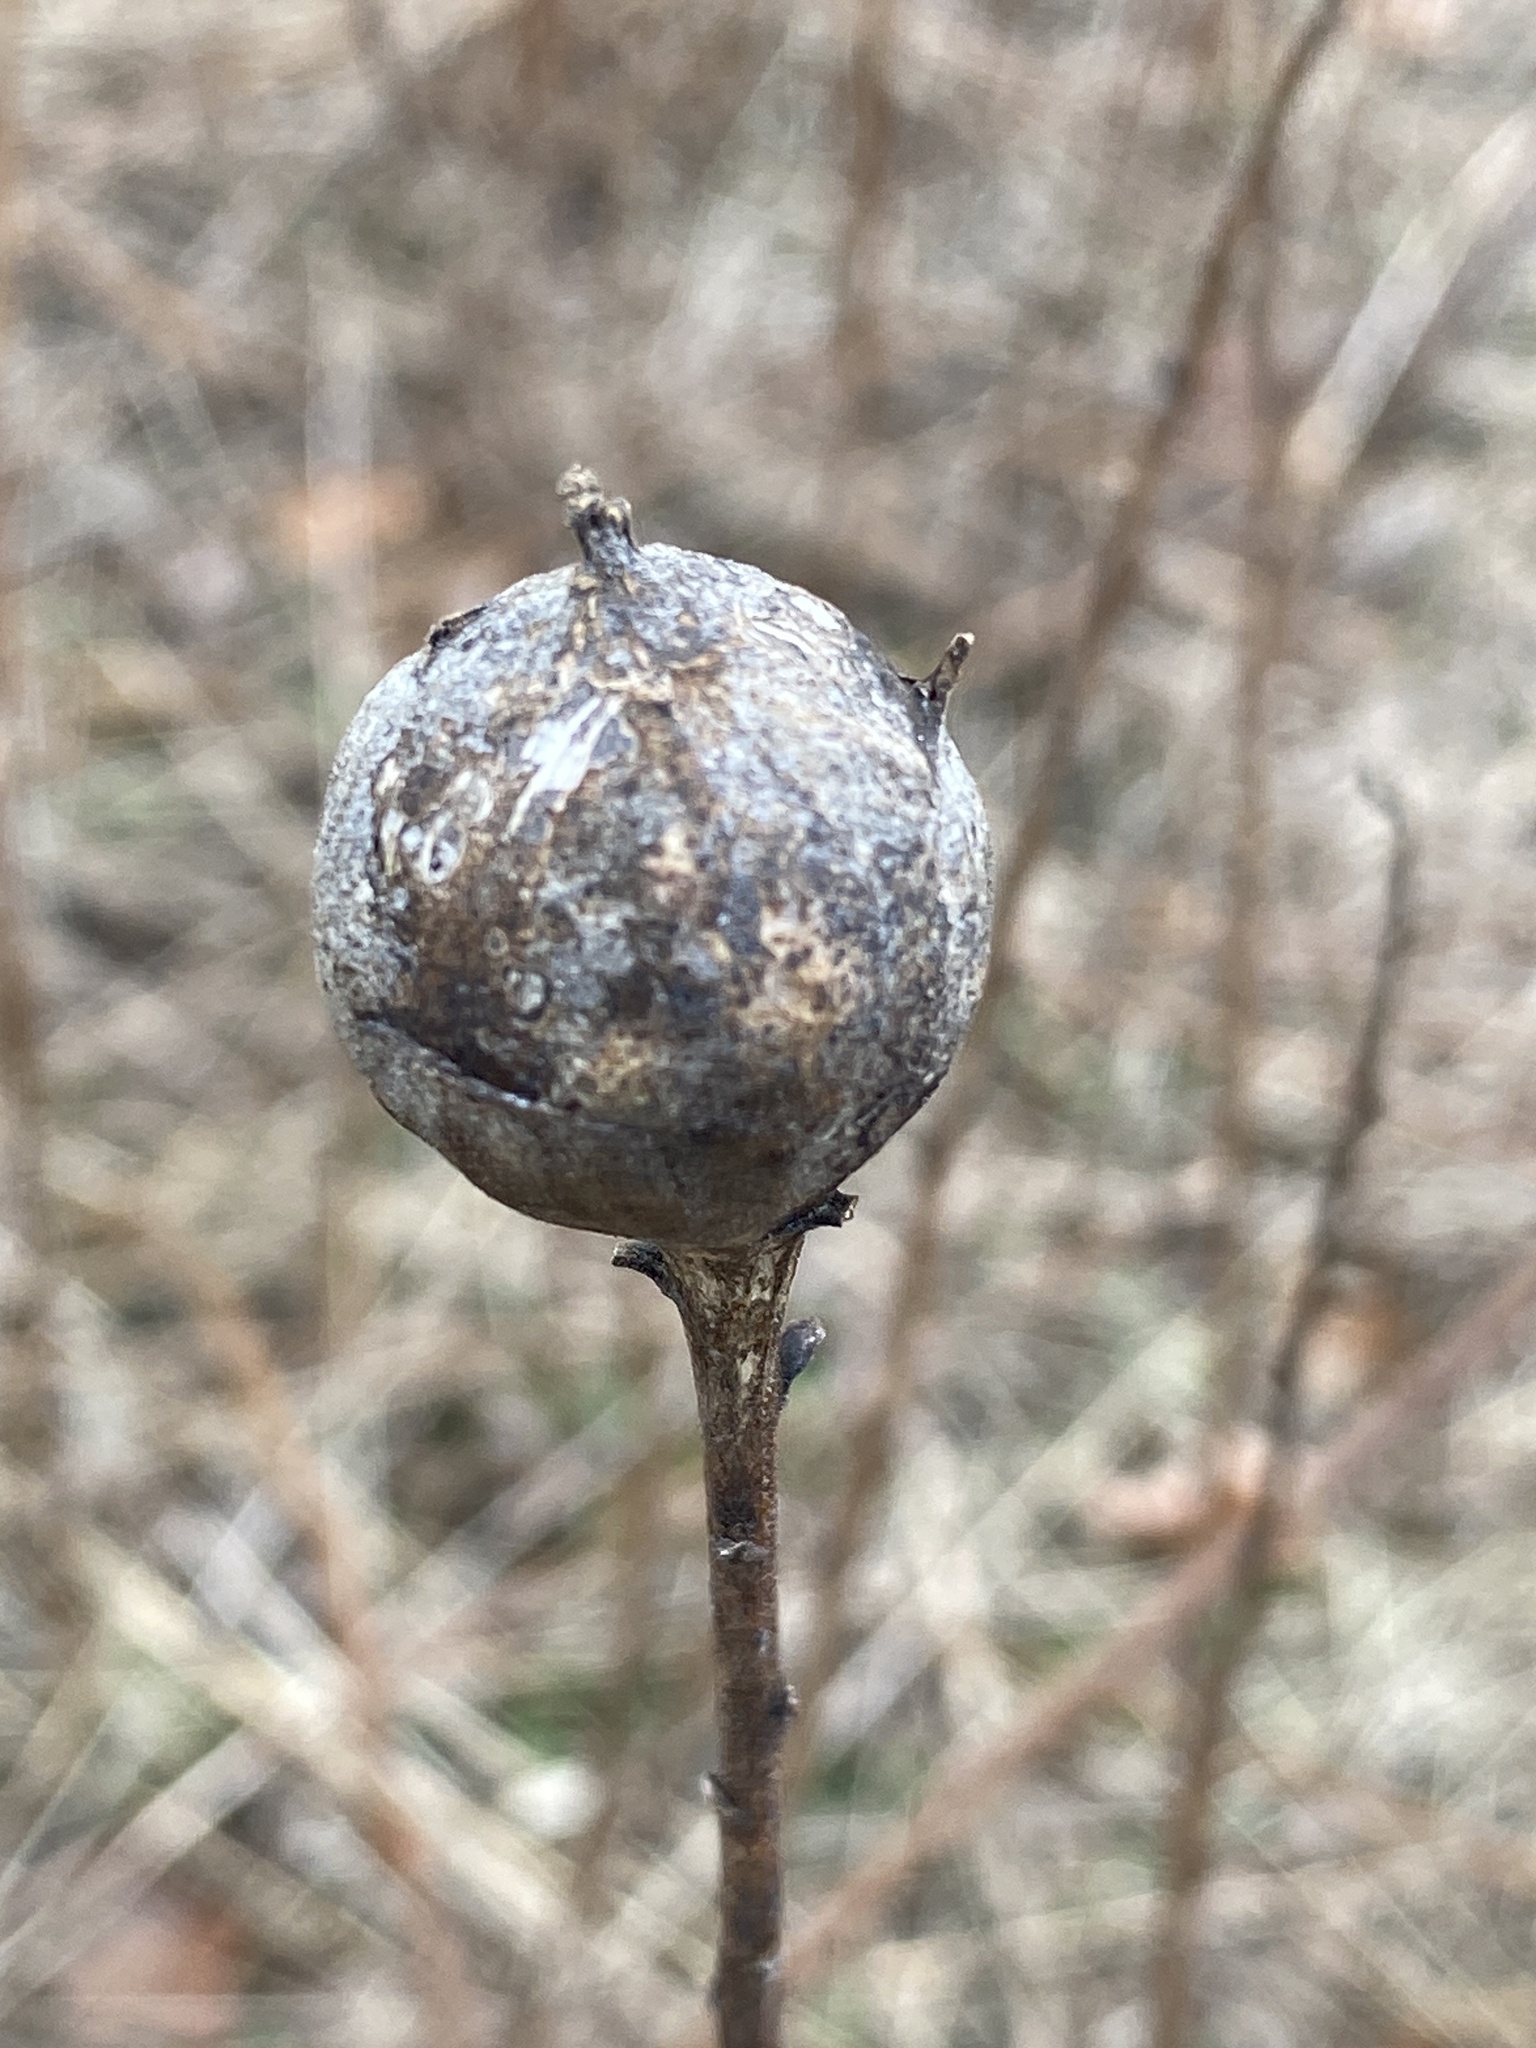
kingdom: Animalia
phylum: Arthropoda
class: Insecta
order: Diptera
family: Tephritidae
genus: Eurosta
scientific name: Eurosta solidaginis
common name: Goldenrod gall fly
